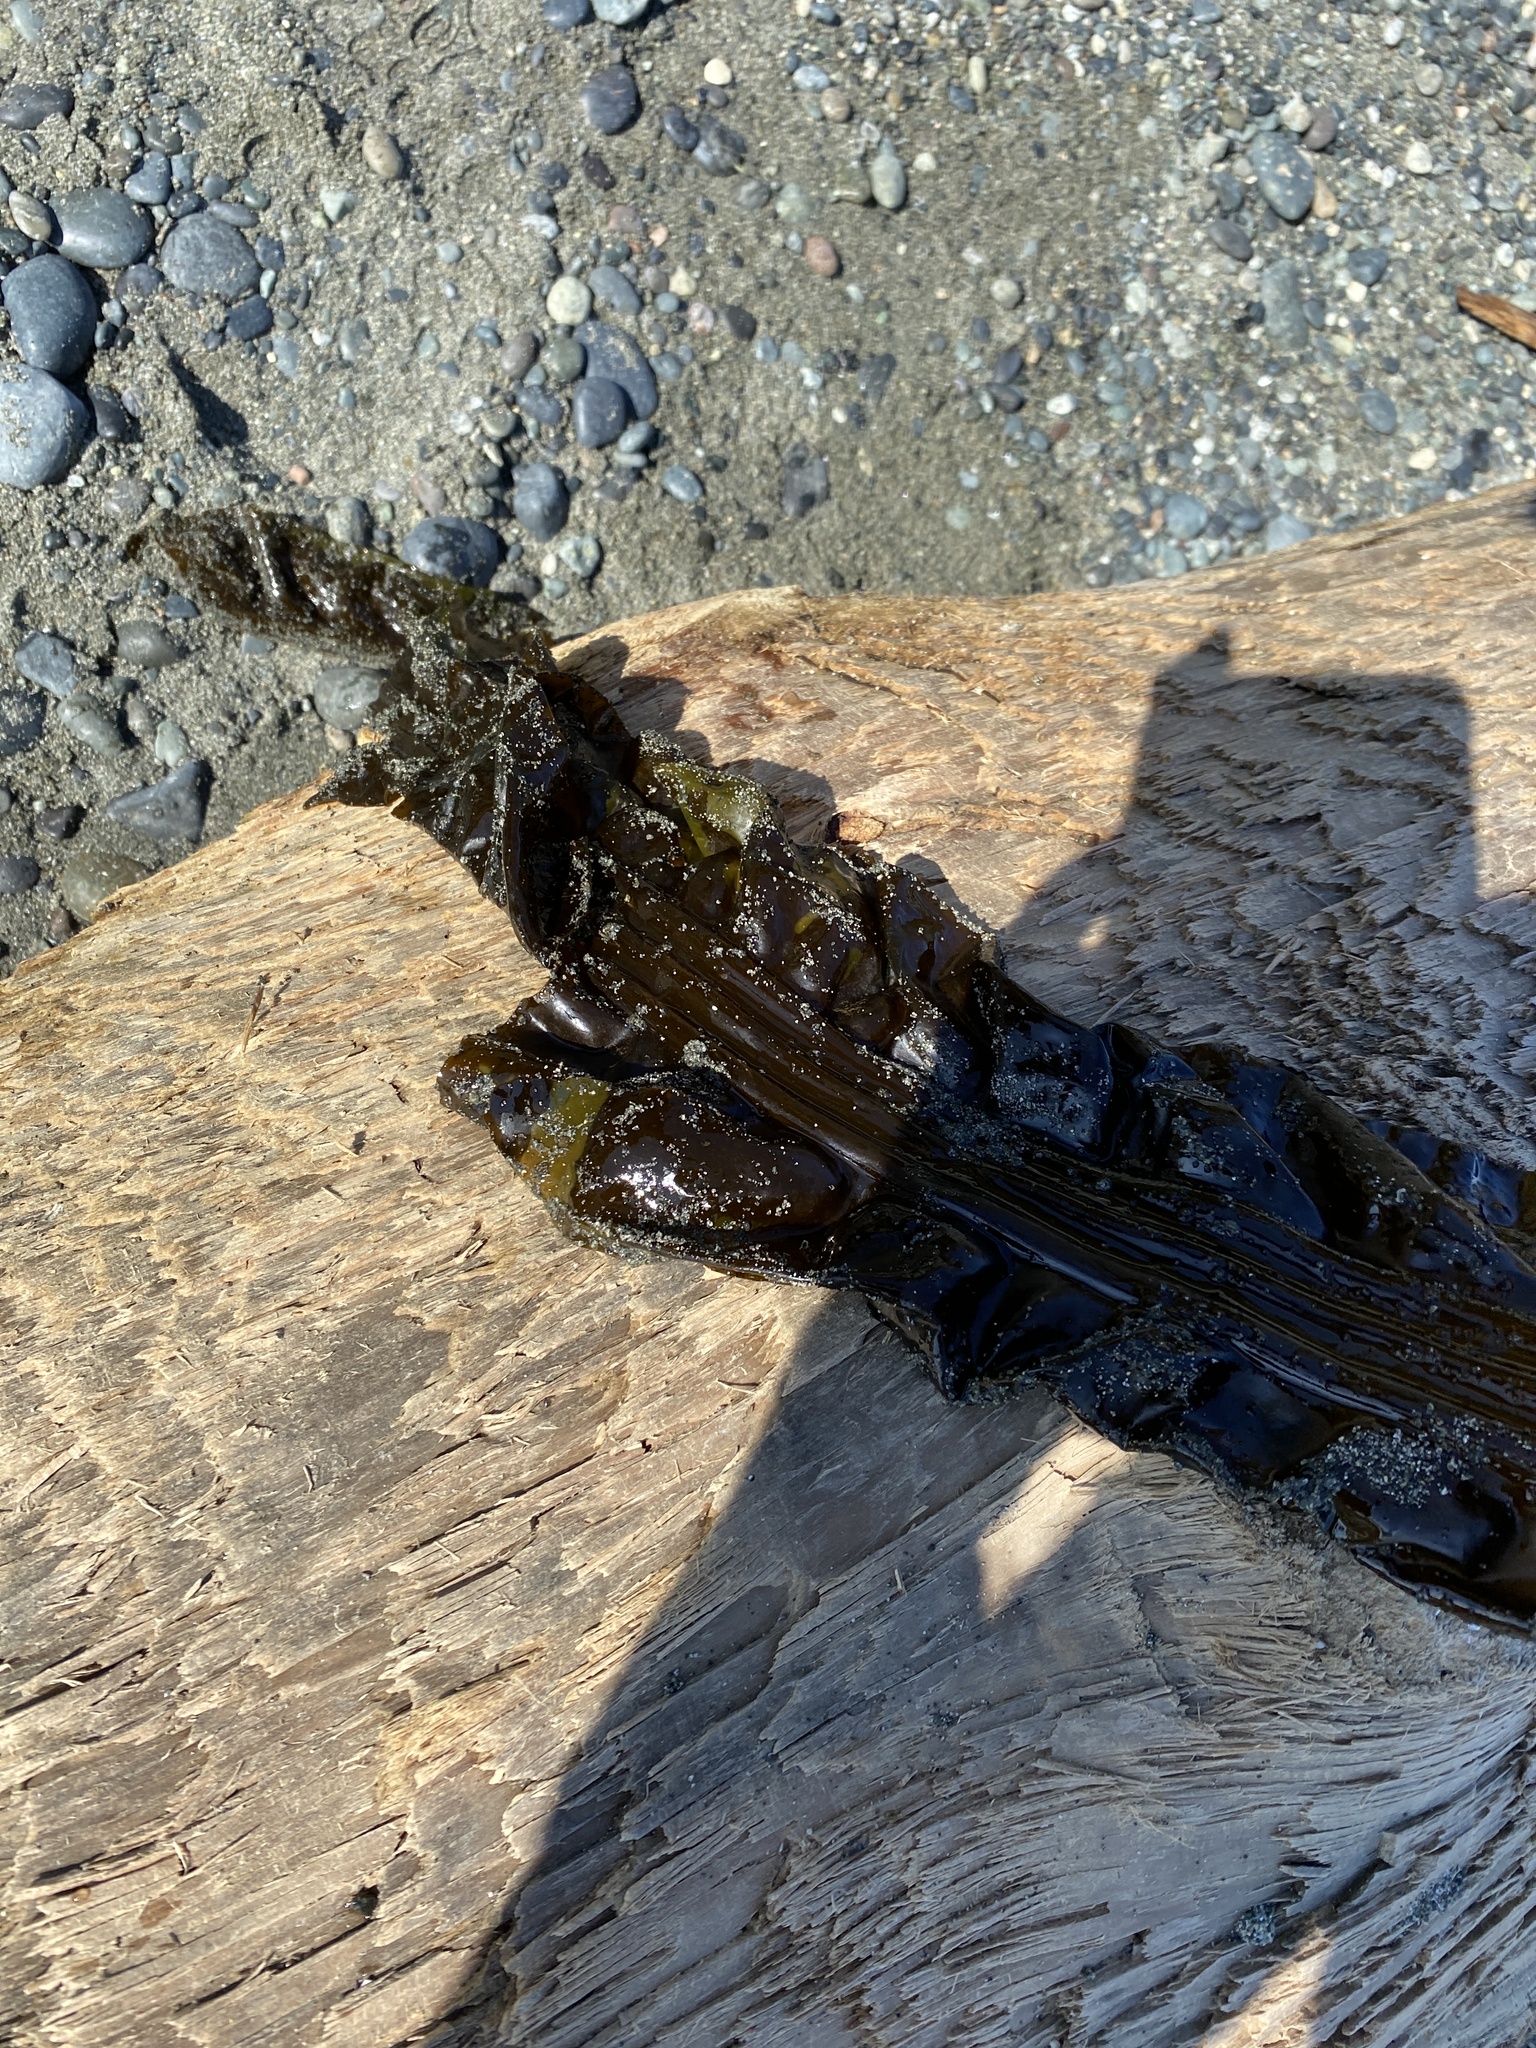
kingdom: Chromista
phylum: Ochrophyta
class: Phaeophyceae
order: Laminariales
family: Laminariaceae
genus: Nereocystis
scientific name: Nereocystis luetkeana
